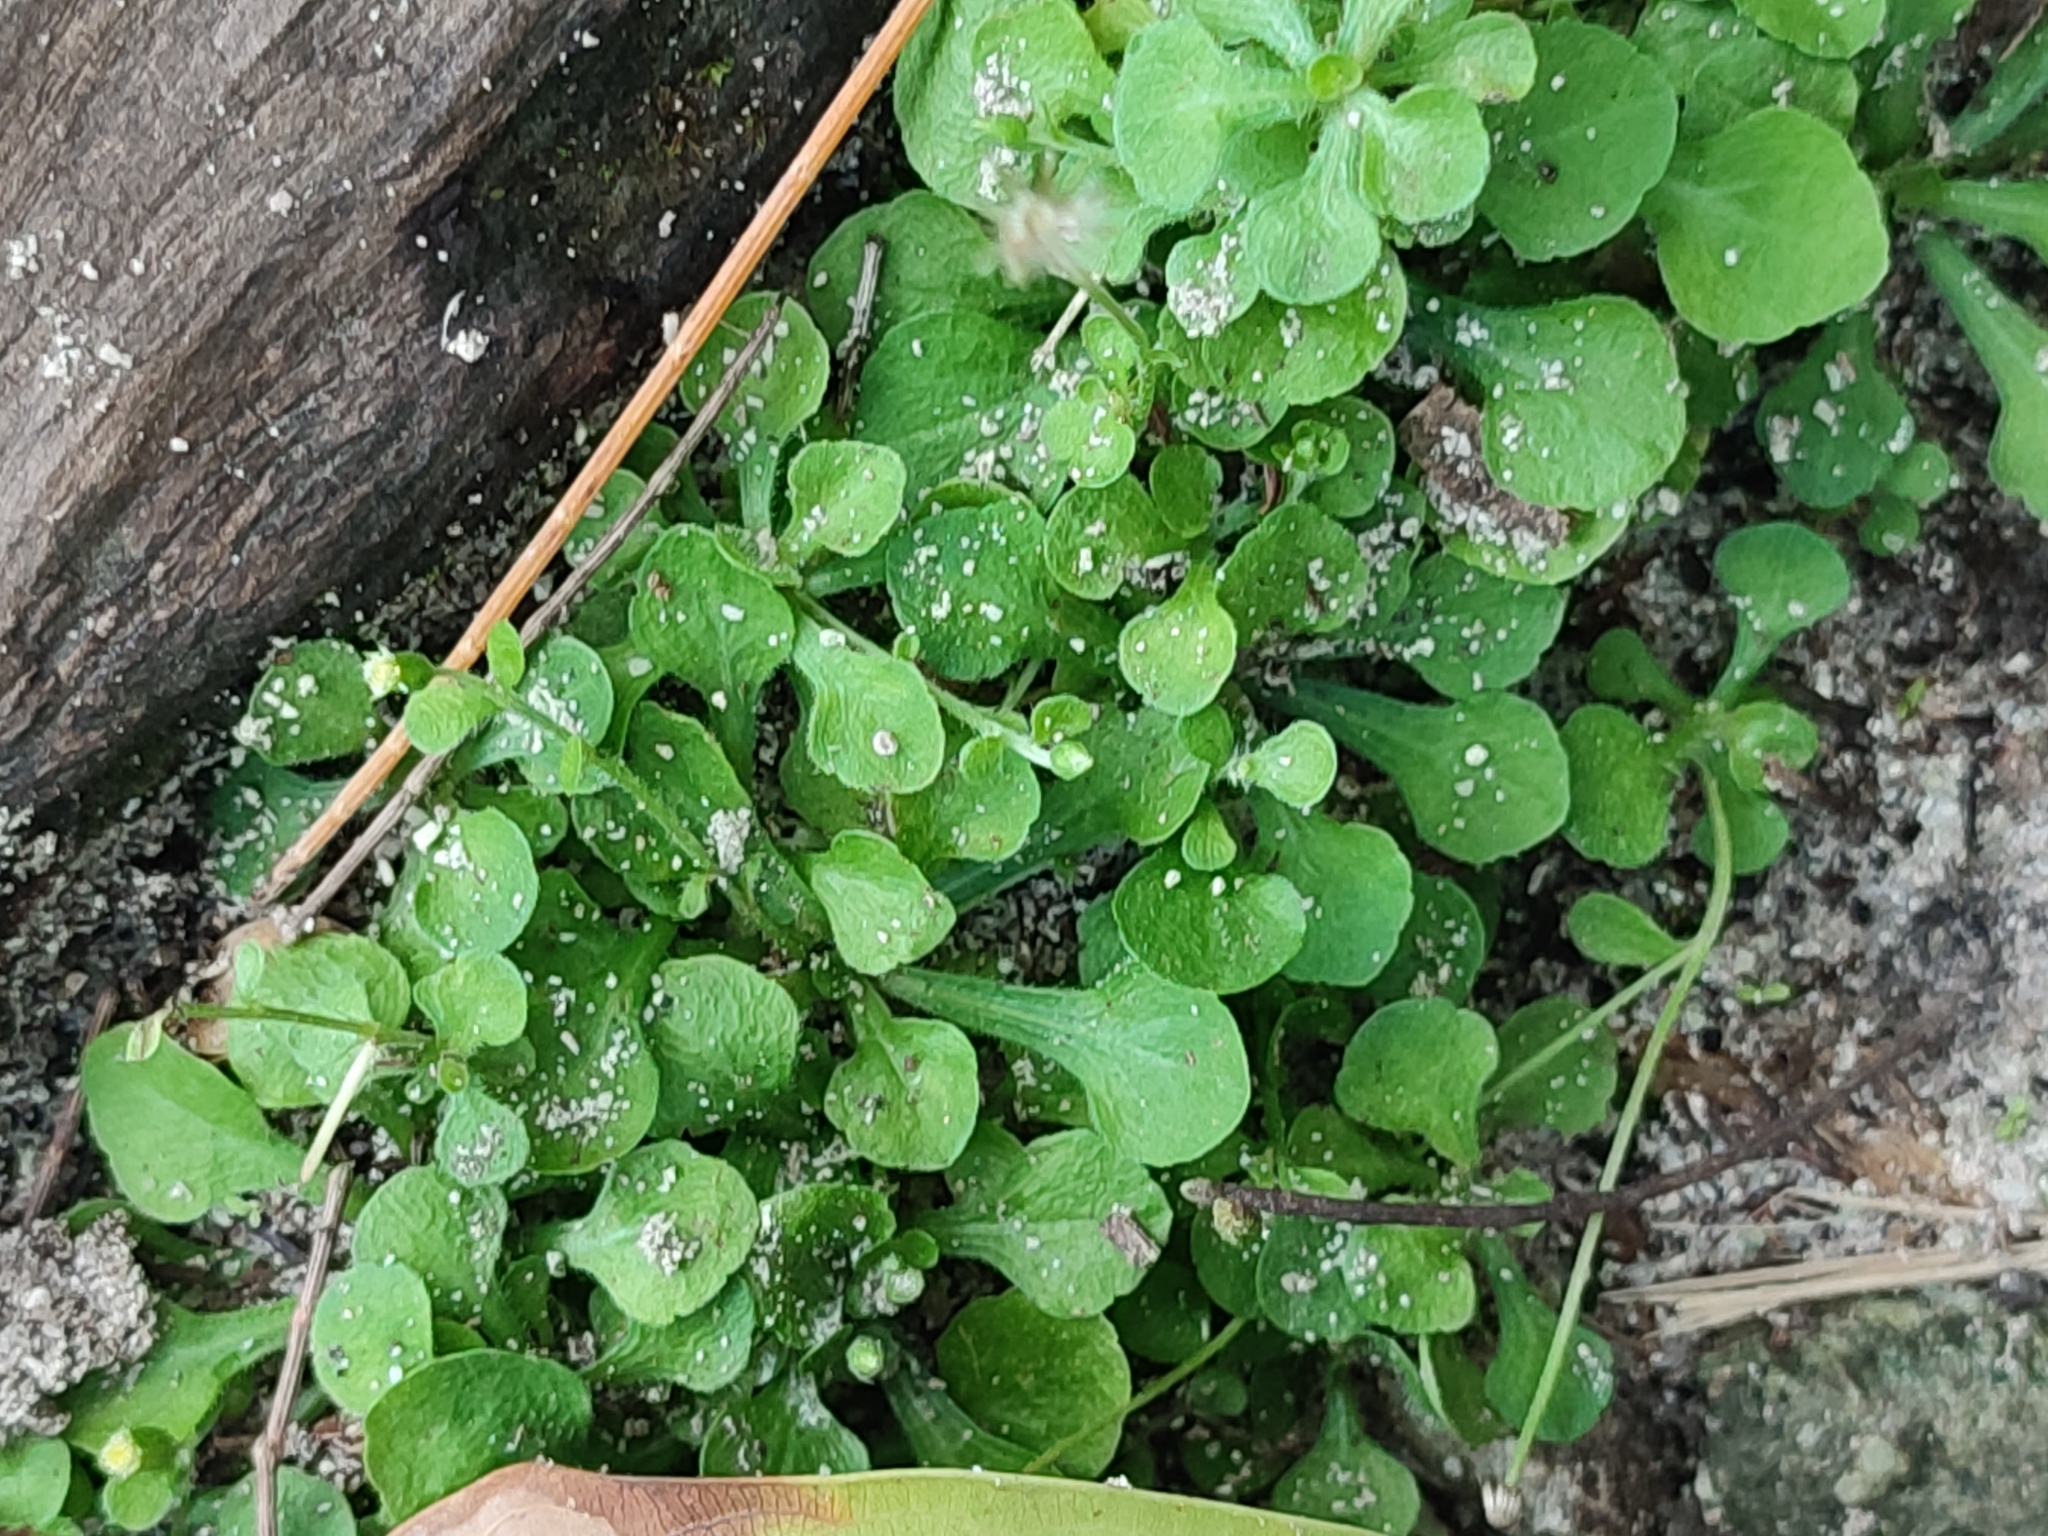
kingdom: Plantae
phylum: Tracheophyta
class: Magnoliopsida
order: Asterales
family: Asteraceae
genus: Erigeron
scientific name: Erigeron bellioides
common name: Bellorita
